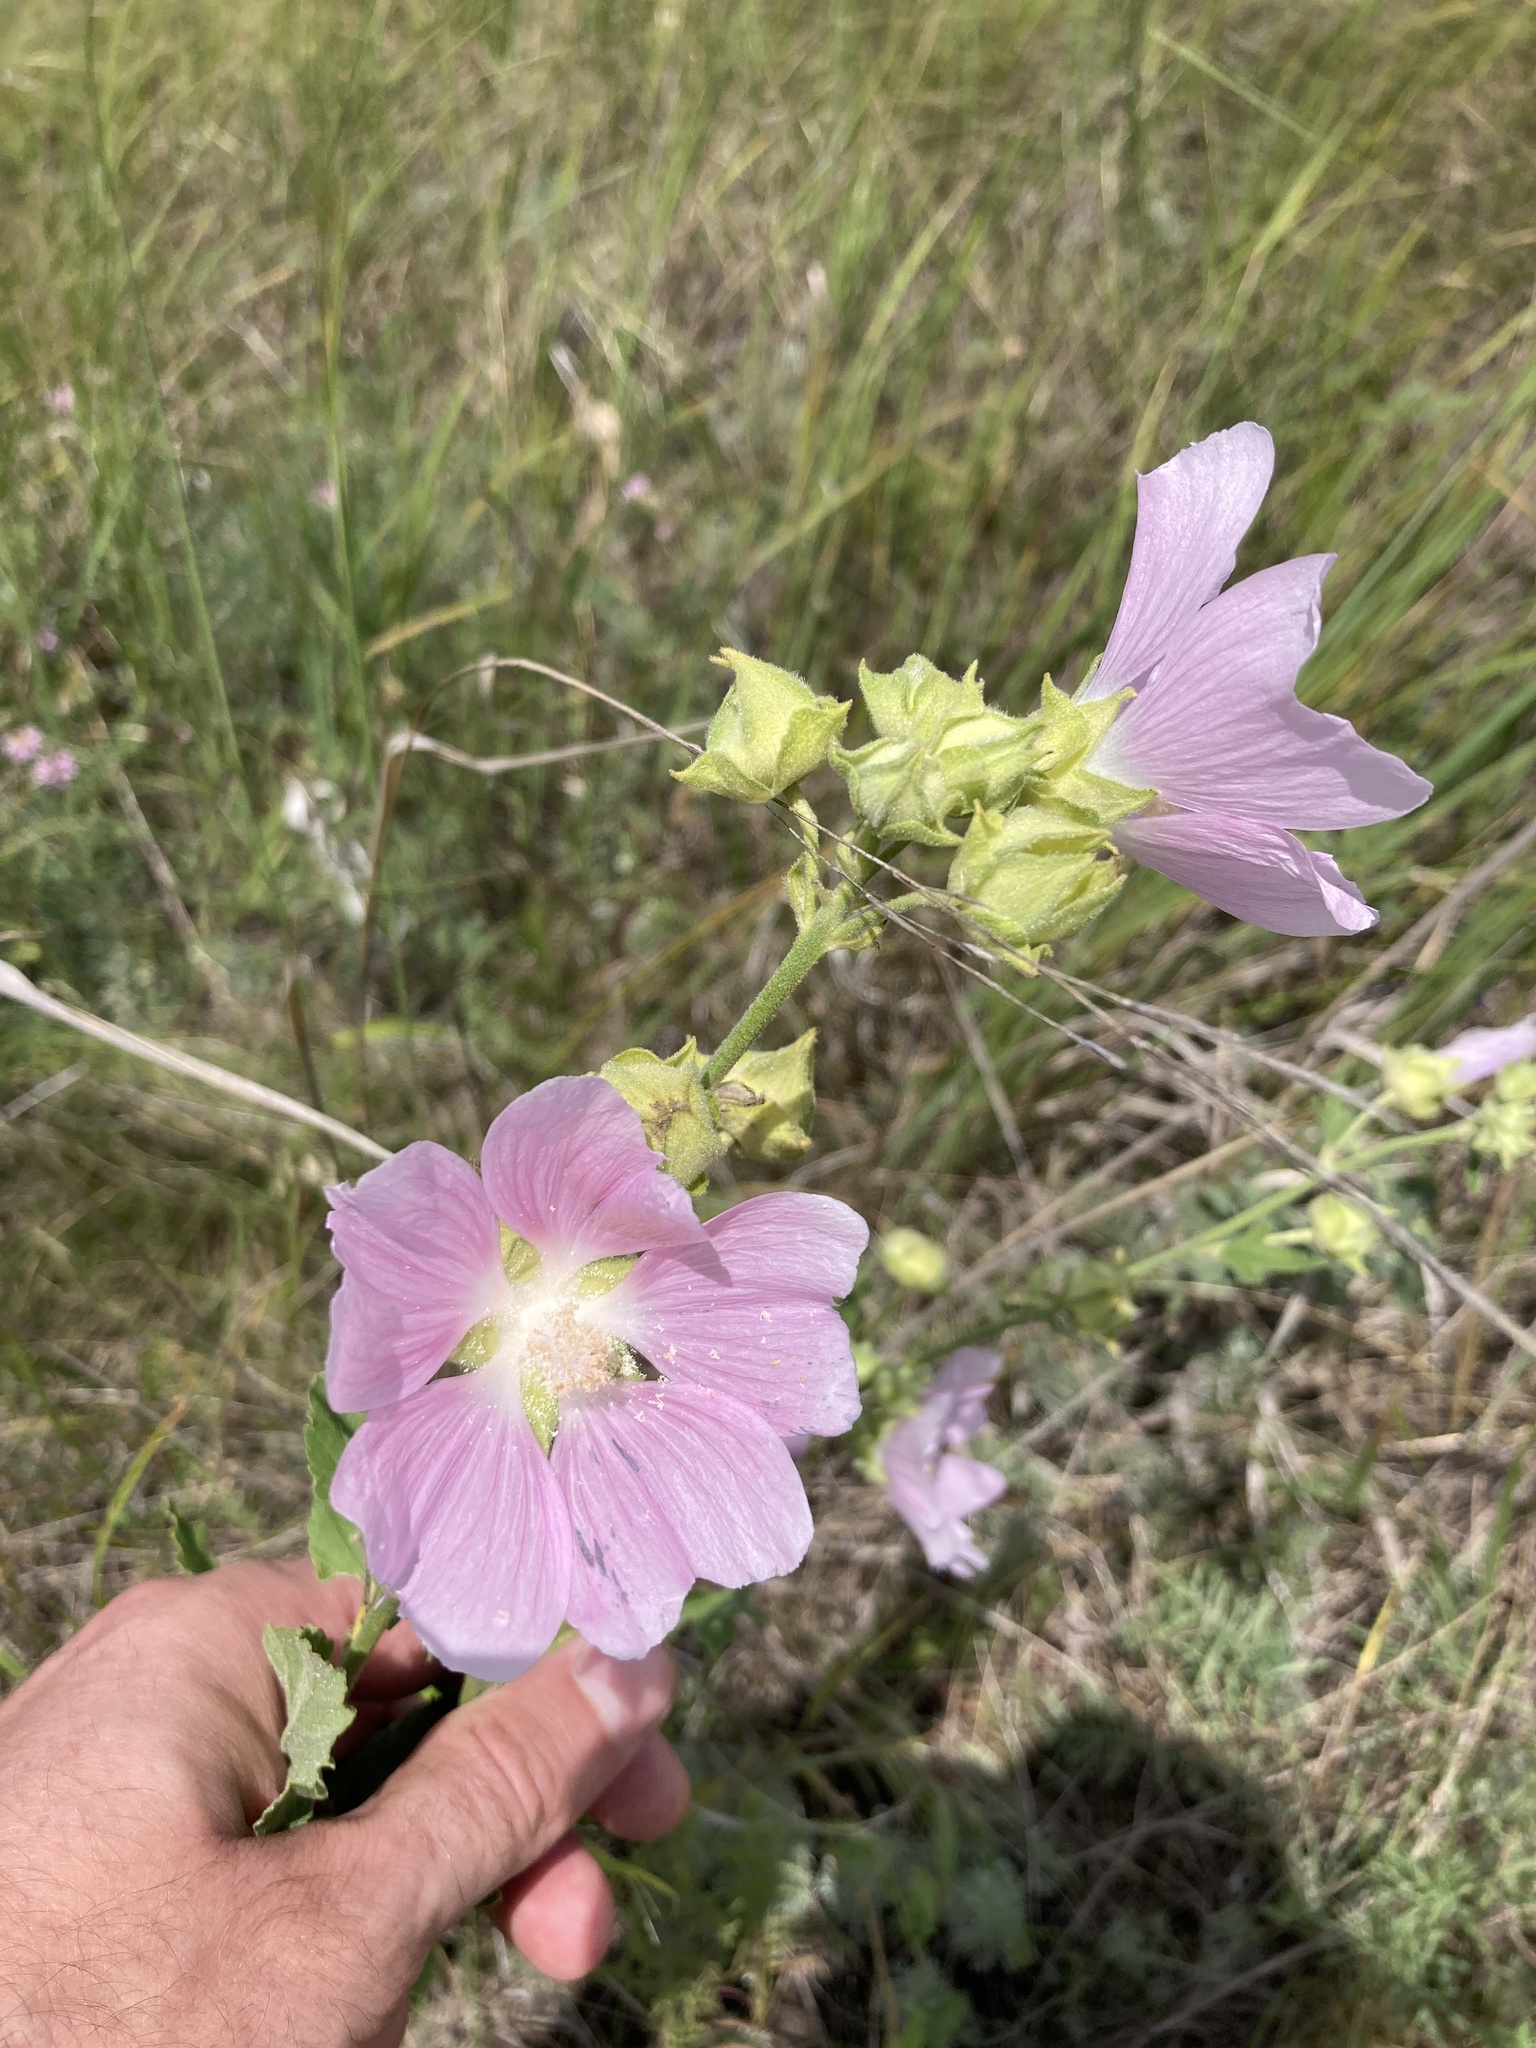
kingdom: Plantae
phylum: Tracheophyta
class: Magnoliopsida
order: Malvales
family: Malvaceae
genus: Malva
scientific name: Malva thuringiaca
